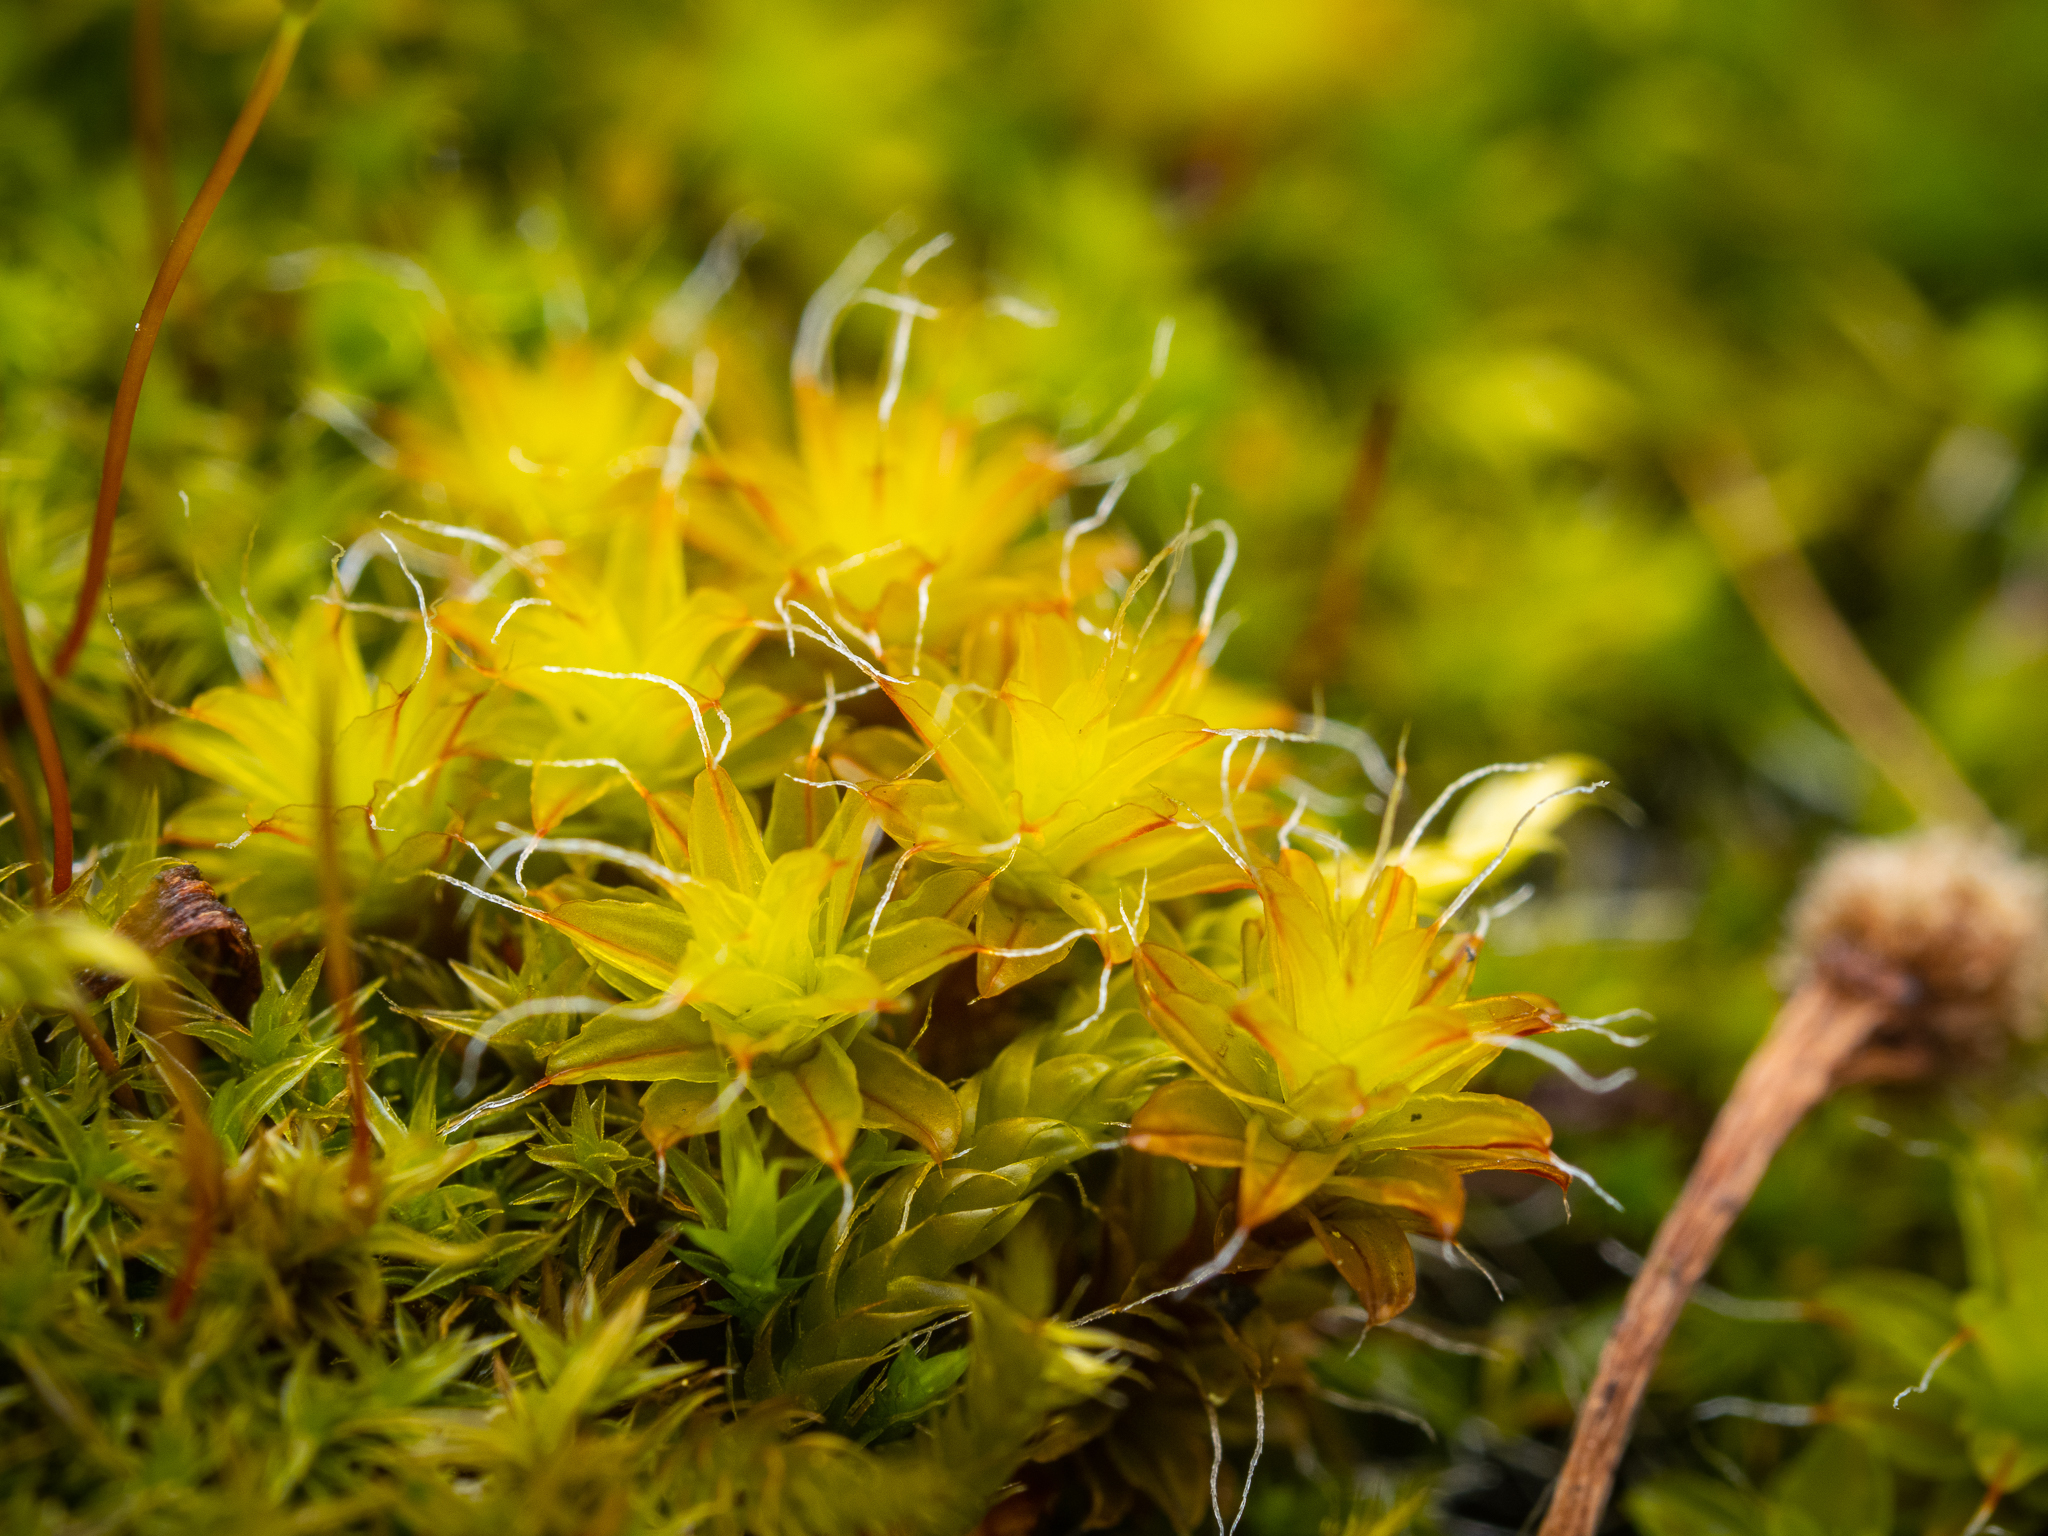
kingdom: Plantae
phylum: Bryophyta
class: Bryopsida
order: Pottiales
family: Pottiaceae
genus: Syntrichia
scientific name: Syntrichia ruralis
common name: Sidewalk screw moss
